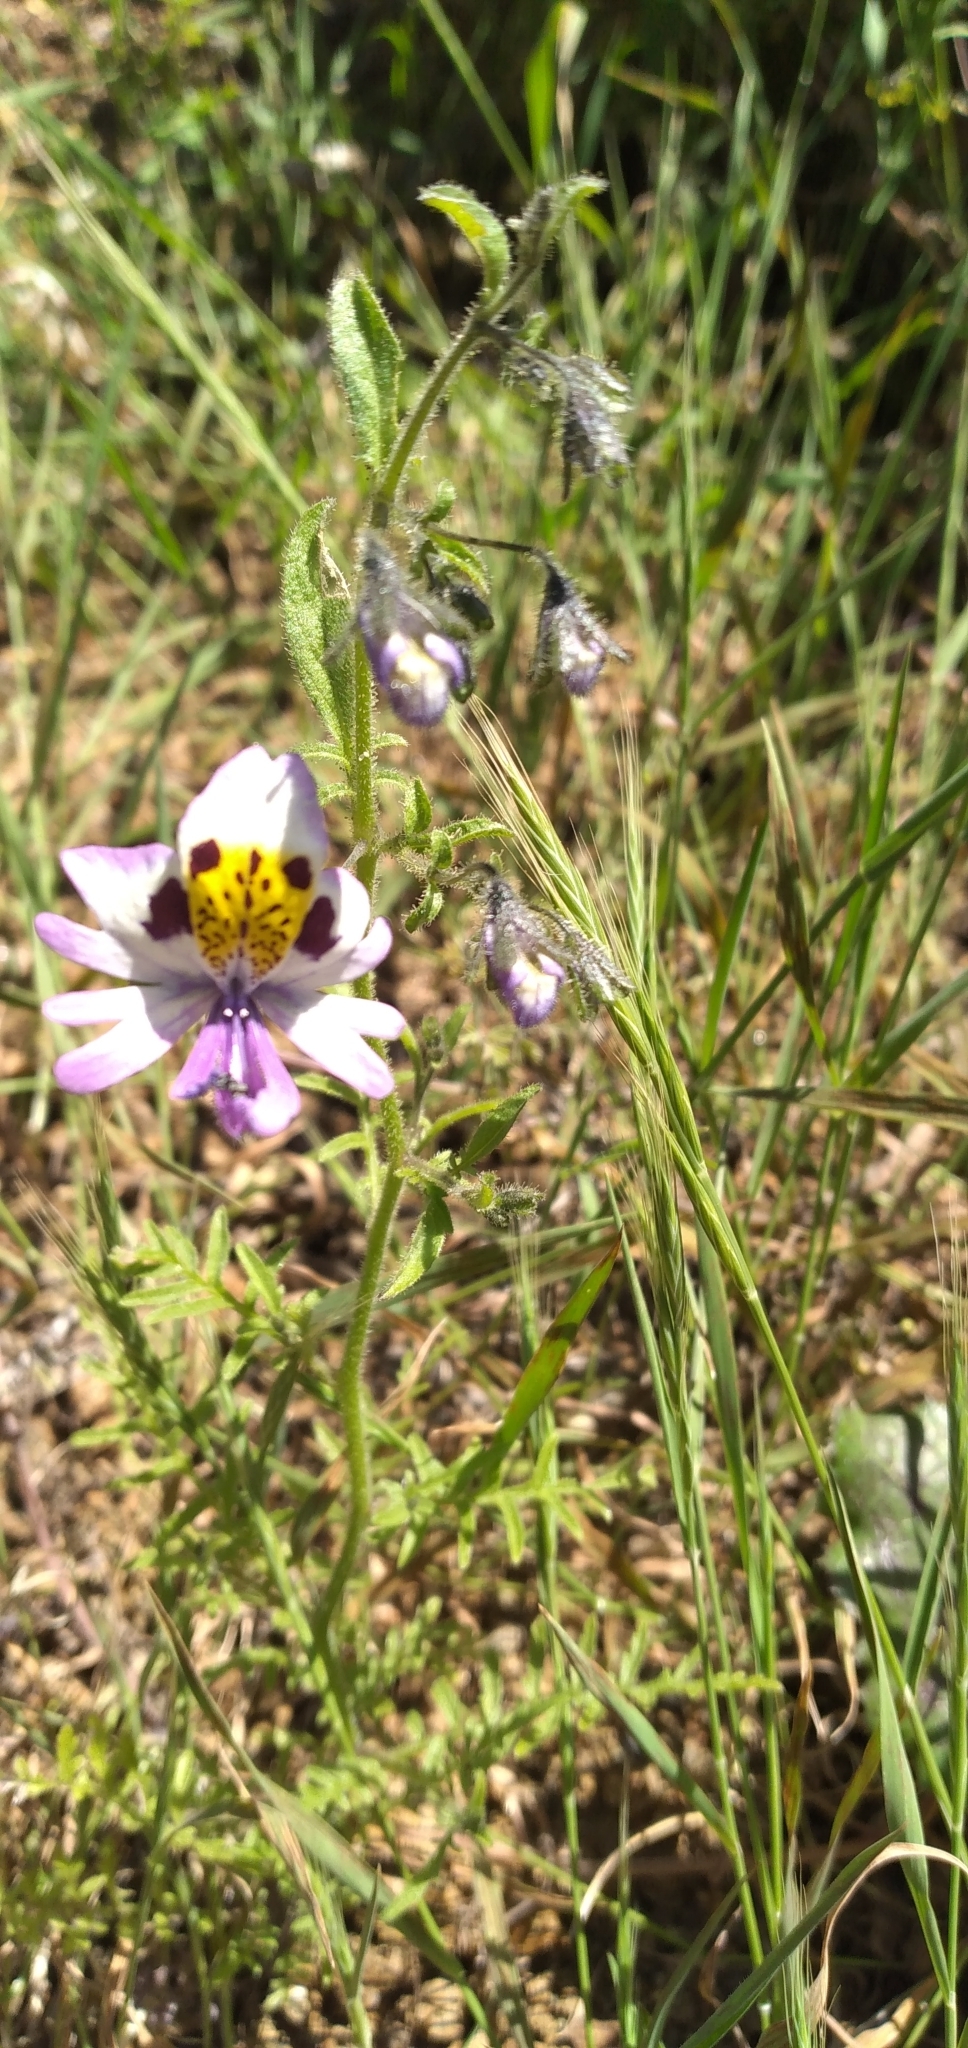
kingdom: Plantae
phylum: Tracheophyta
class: Magnoliopsida
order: Solanales
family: Solanaceae
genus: Schizanthus
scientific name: Schizanthus pinnatus
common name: Poor-man's-orchid
